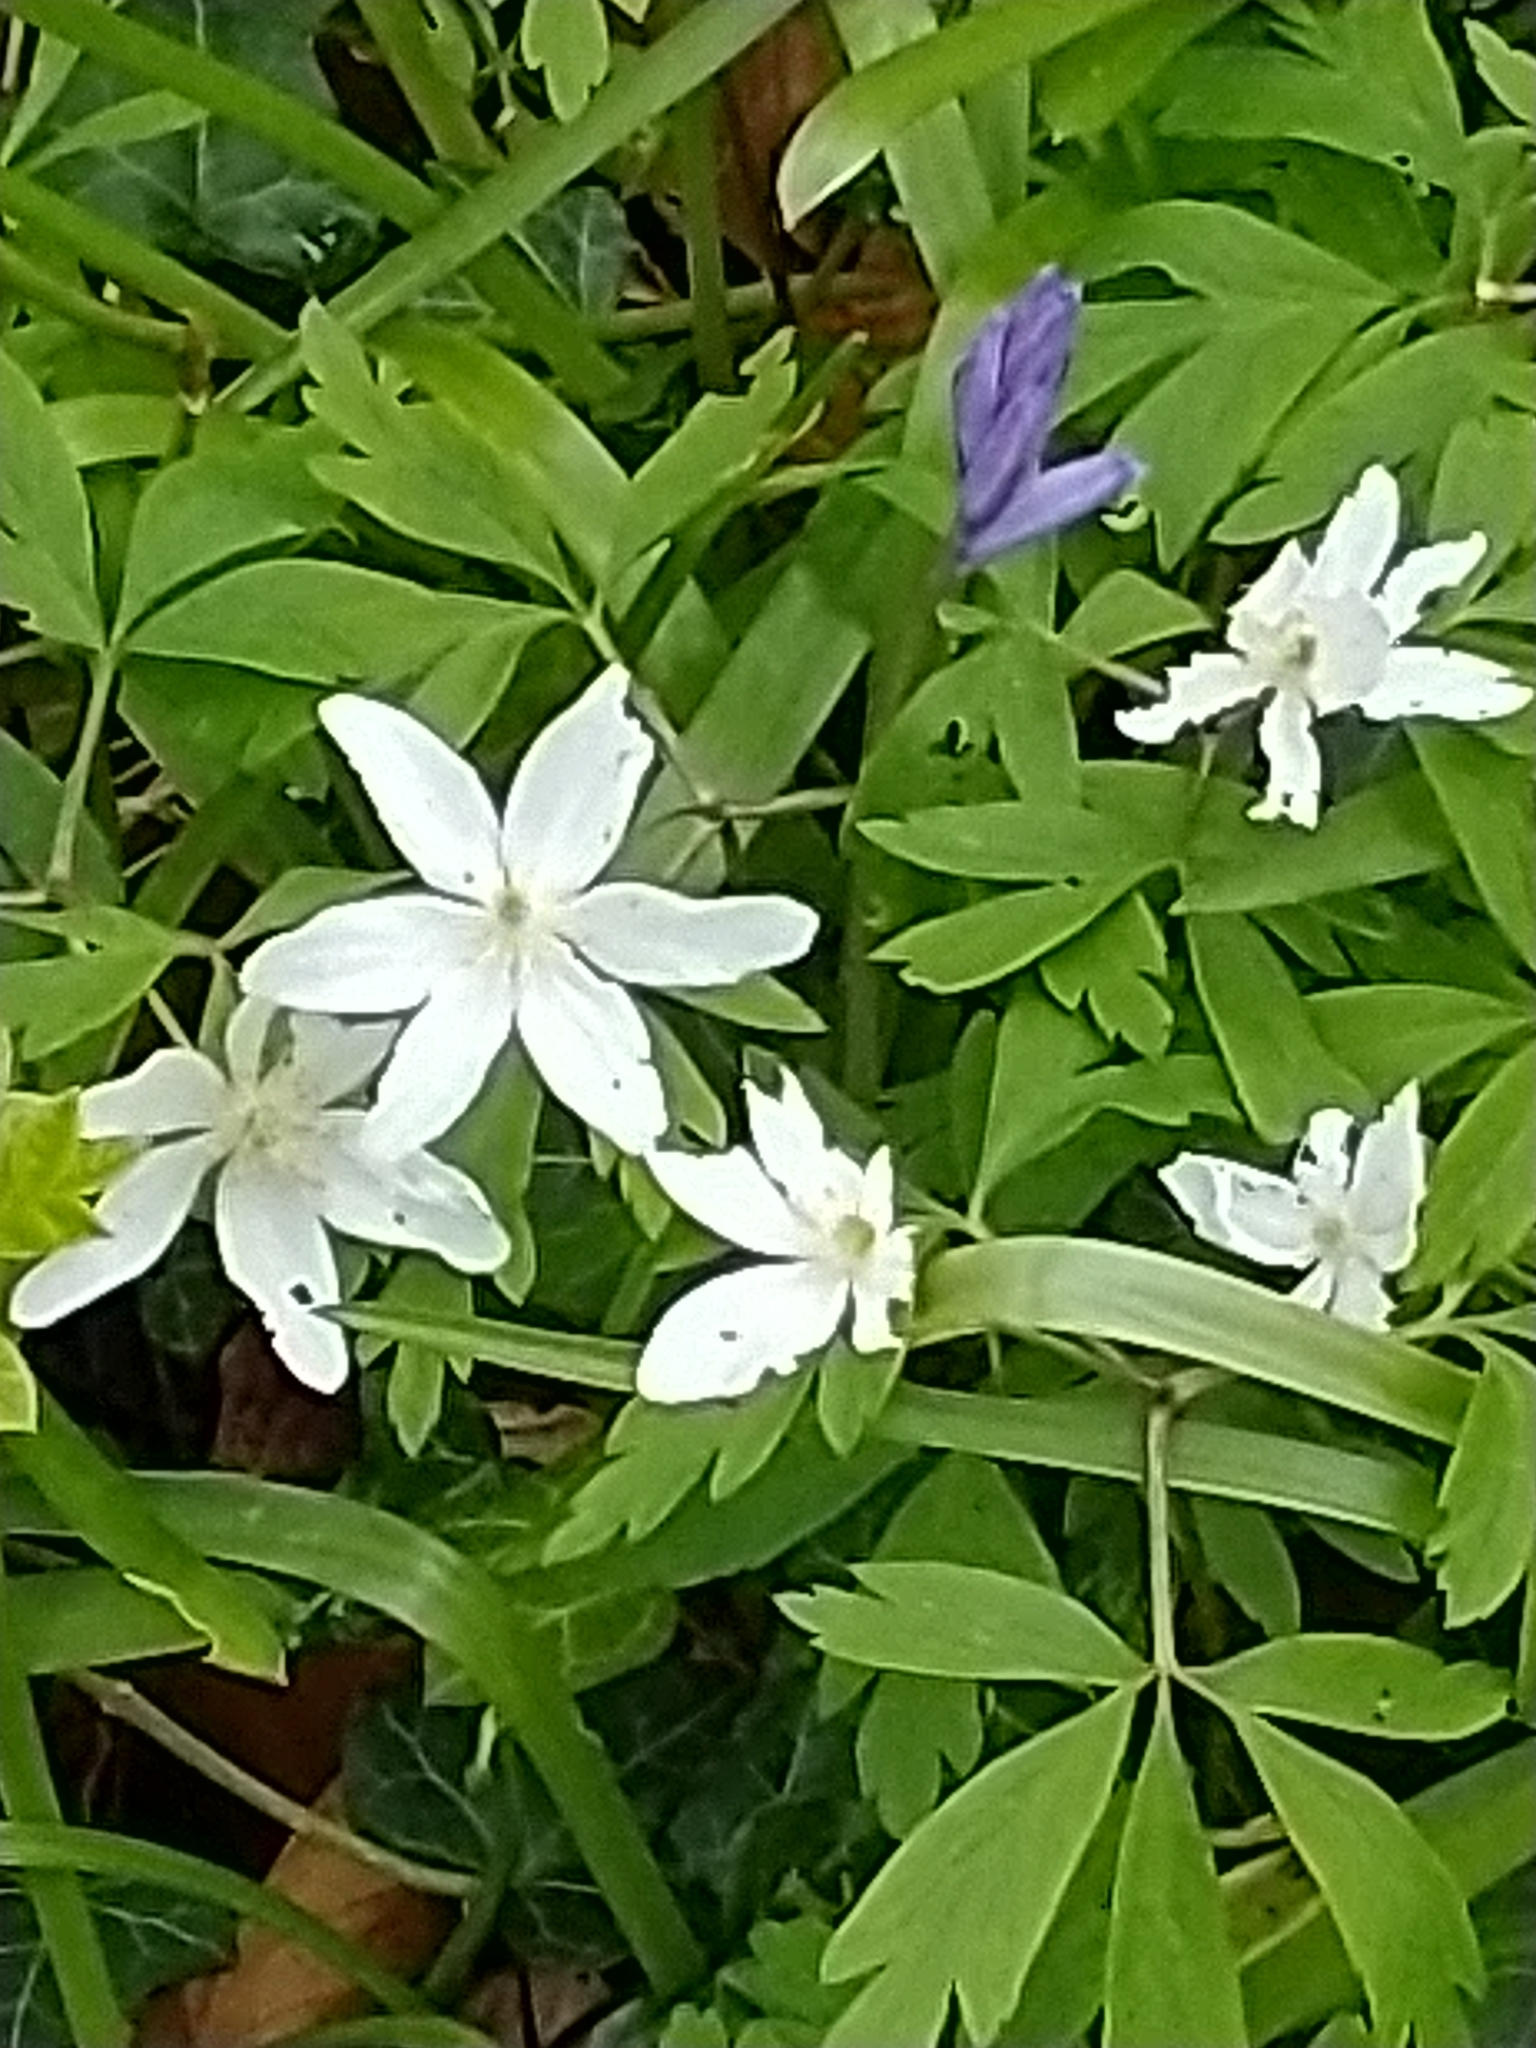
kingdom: Plantae
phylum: Tracheophyta
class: Magnoliopsida
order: Ranunculales
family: Ranunculaceae
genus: Anemone
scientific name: Anemone nemorosa
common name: Wood anemone
